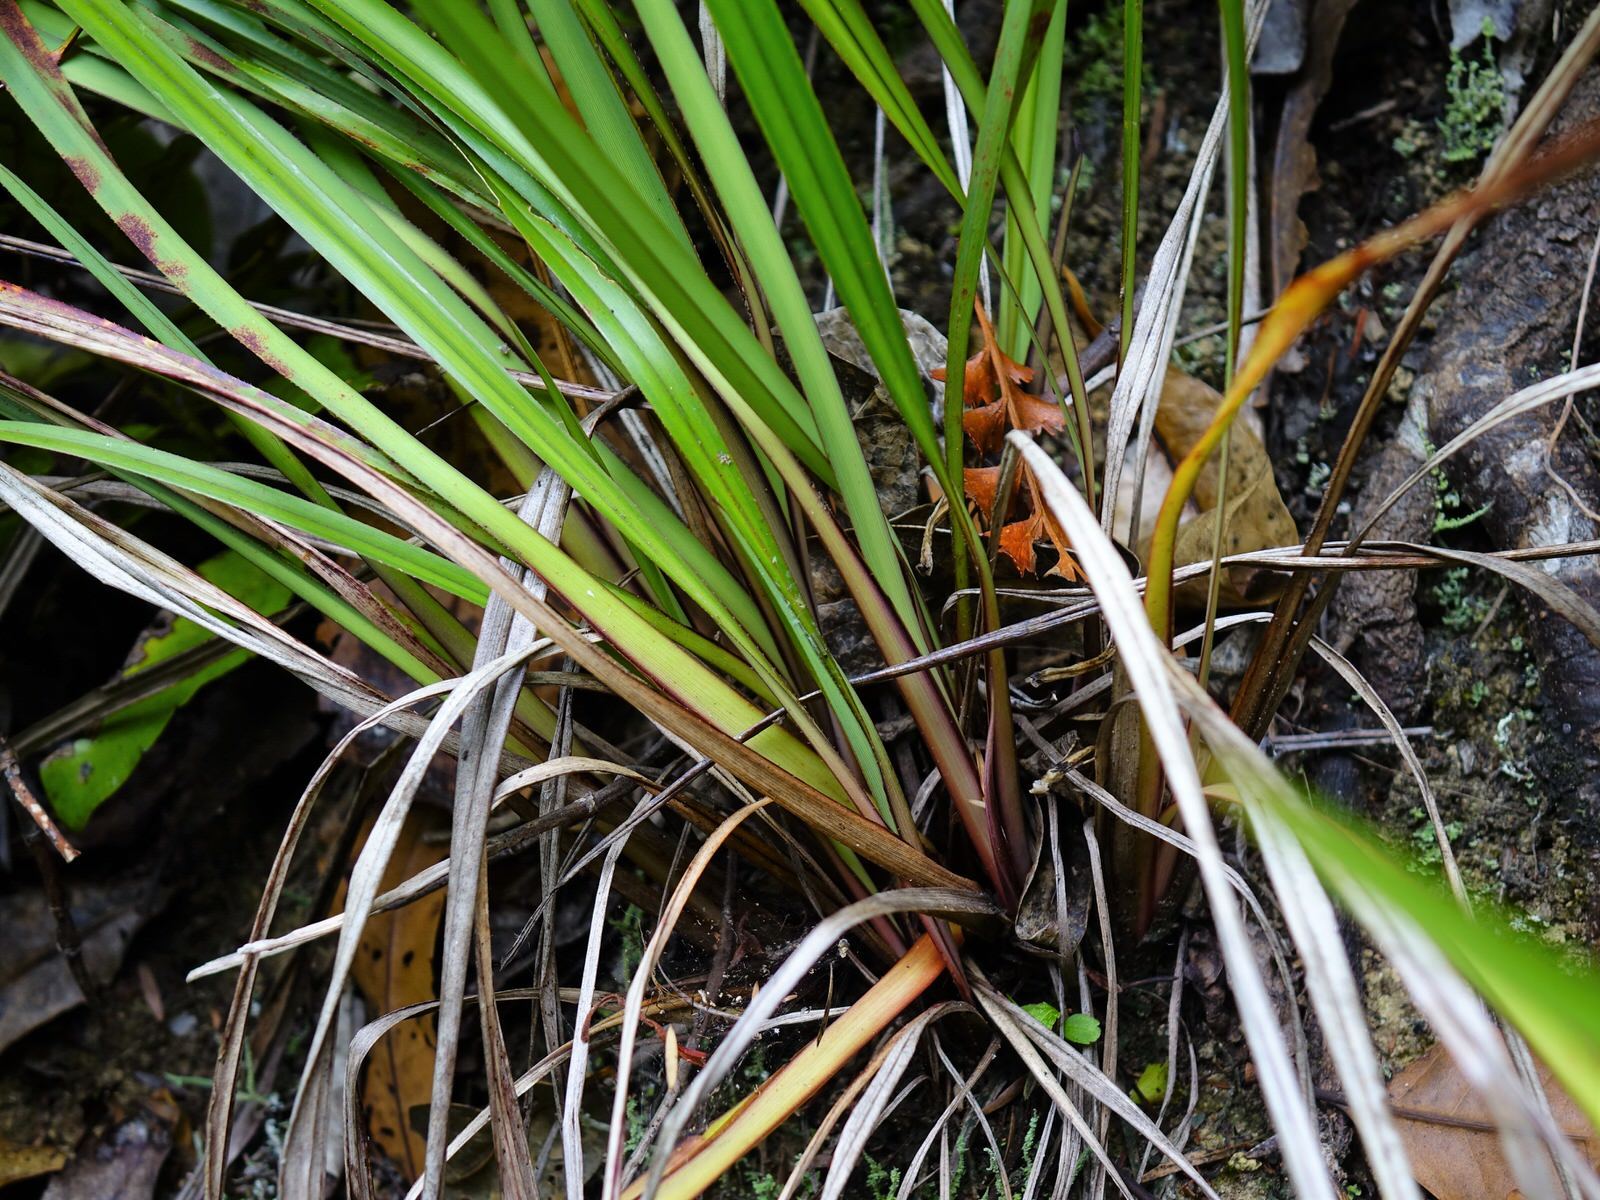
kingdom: Plantae
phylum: Tracheophyta
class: Liliopsida
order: Asparagales
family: Asphodelaceae
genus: Dianella
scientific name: Dianella nigra
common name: New zealand-blueberry
